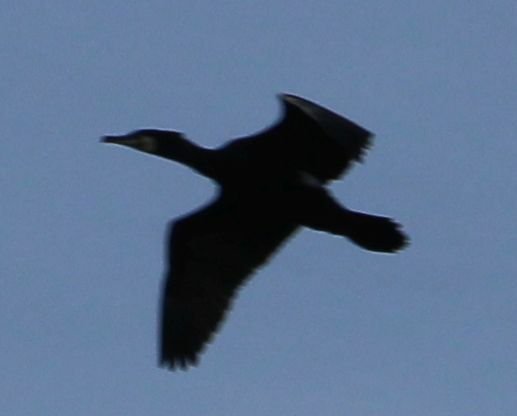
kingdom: Animalia
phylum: Chordata
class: Aves
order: Suliformes
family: Phalacrocoracidae
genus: Phalacrocorax
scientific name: Phalacrocorax carbo
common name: Great cormorant
